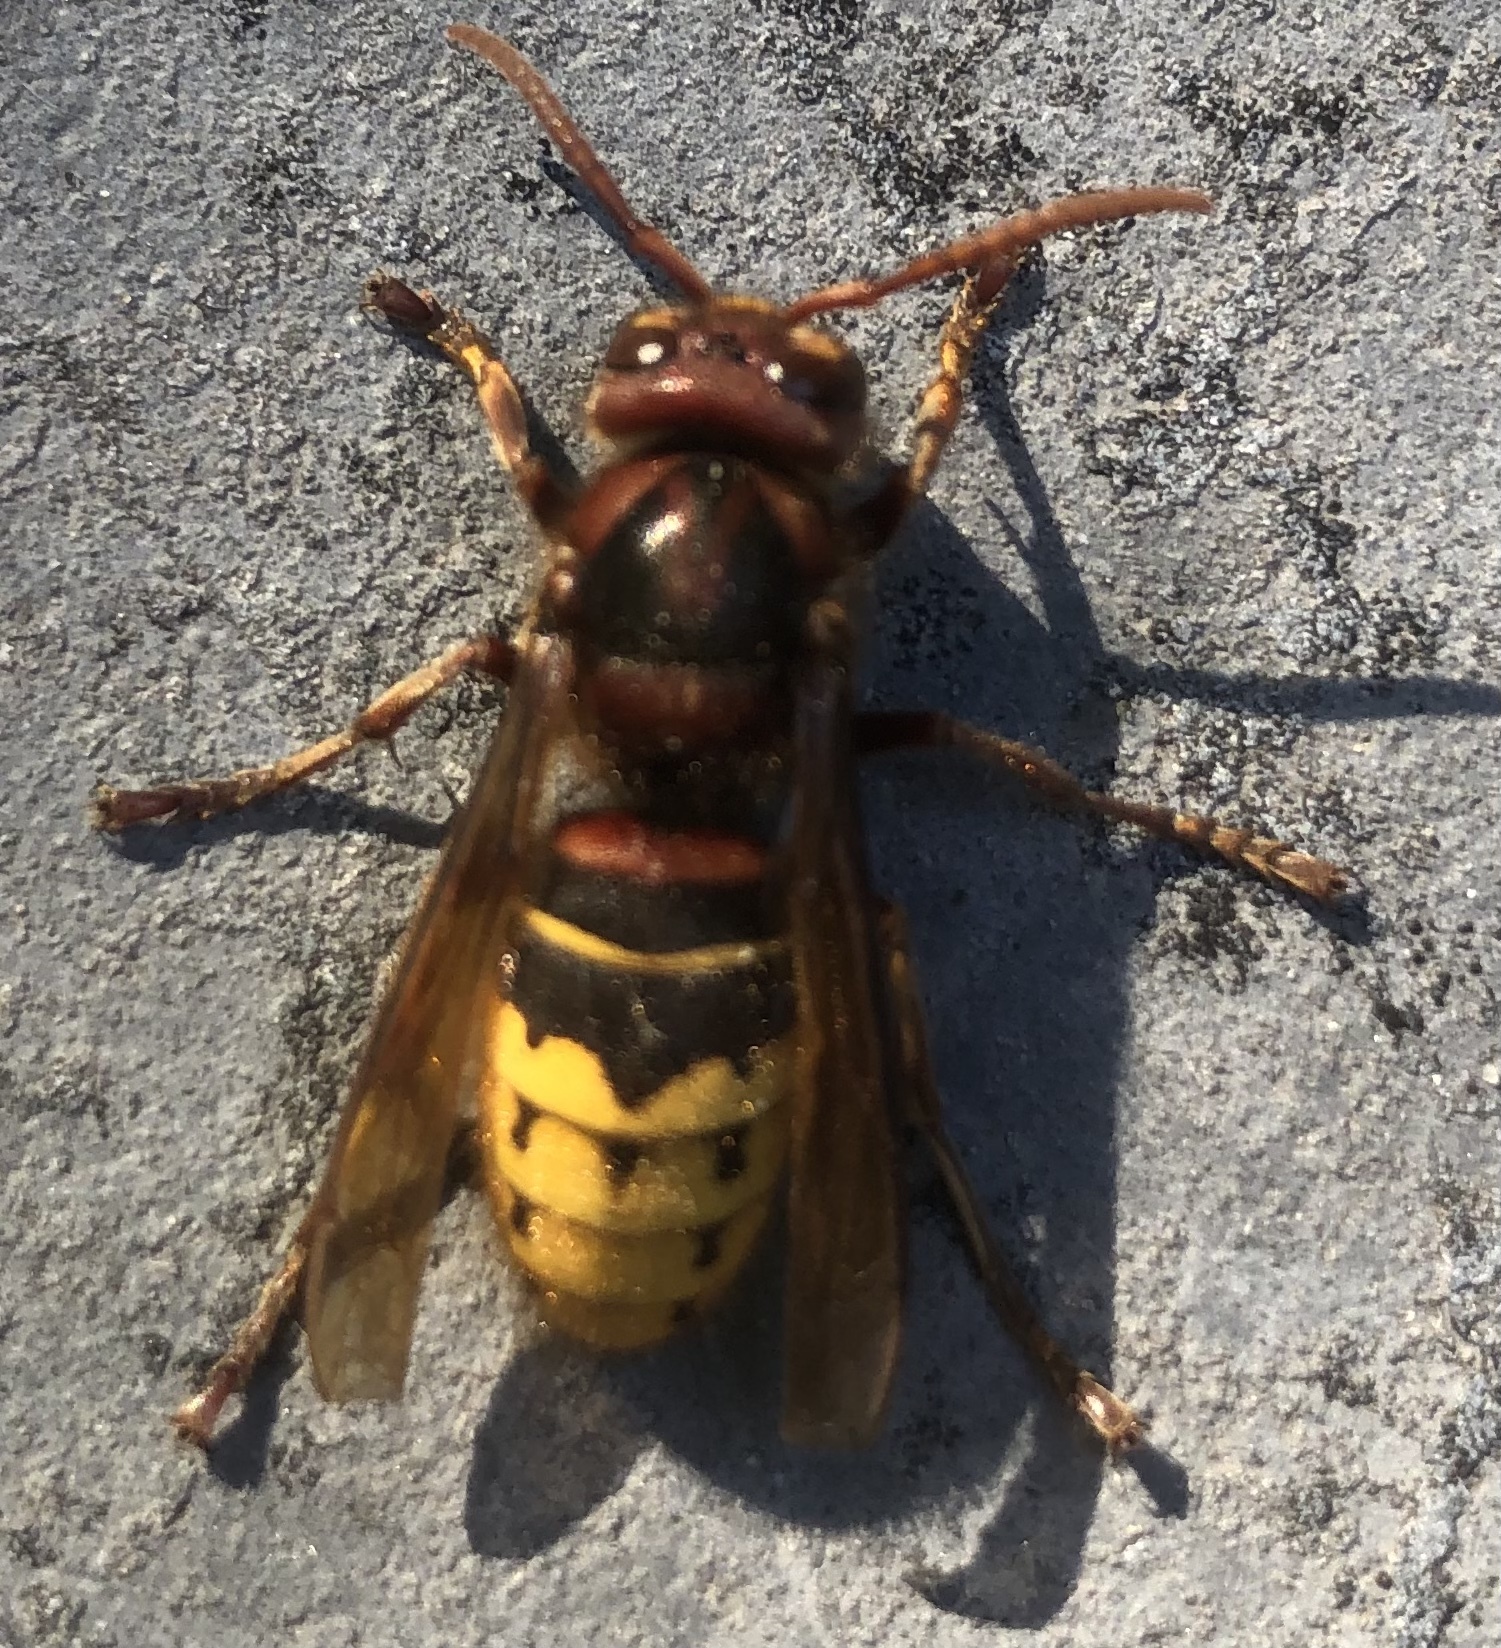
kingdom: Animalia
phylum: Arthropoda
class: Insecta
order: Hymenoptera
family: Vespidae
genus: Vespa
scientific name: Vespa crabro
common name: Hornet
